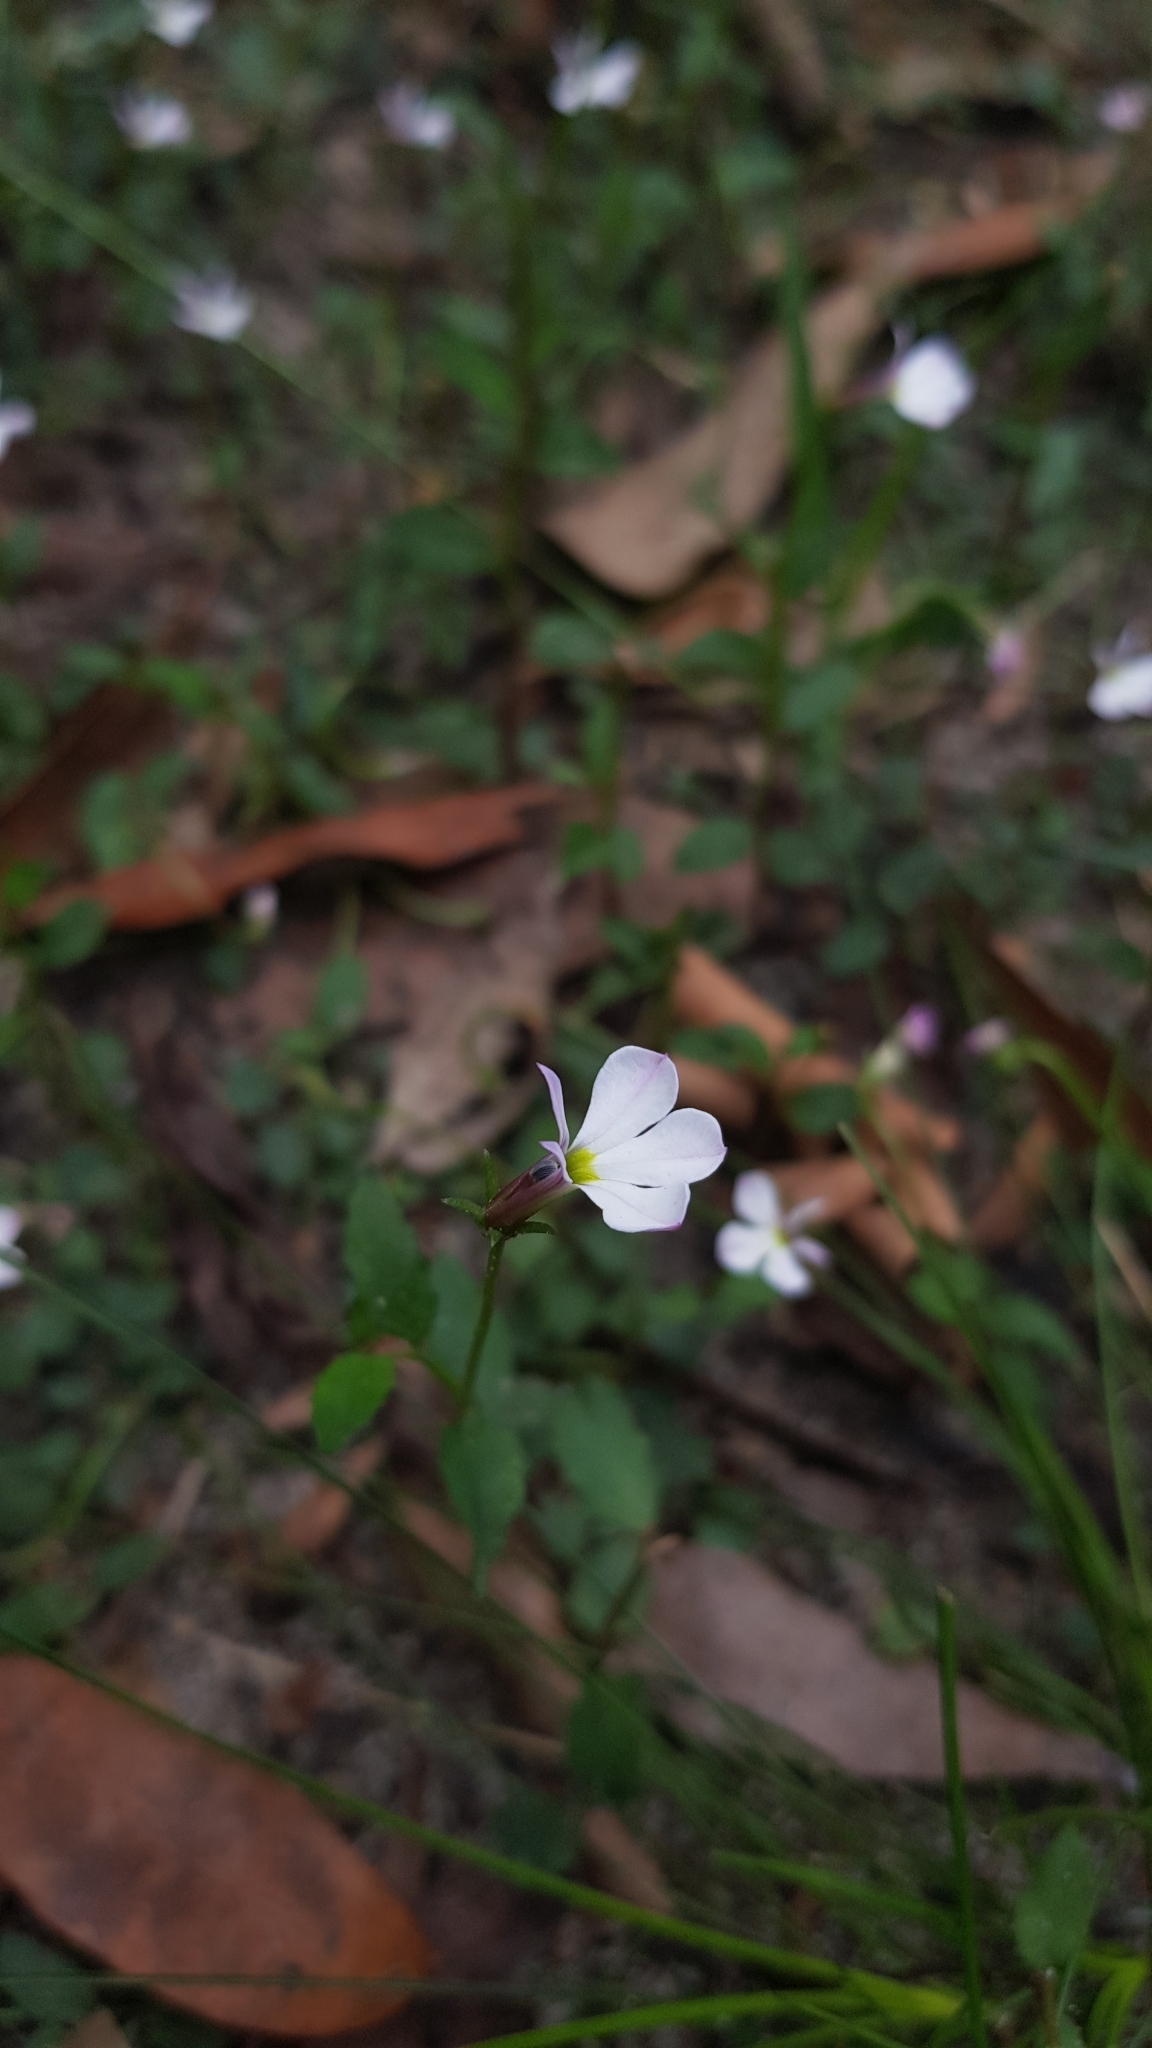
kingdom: Plantae
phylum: Tracheophyta
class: Magnoliopsida
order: Asterales
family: Campanulaceae
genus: Lobelia
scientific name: Lobelia purpurascens
